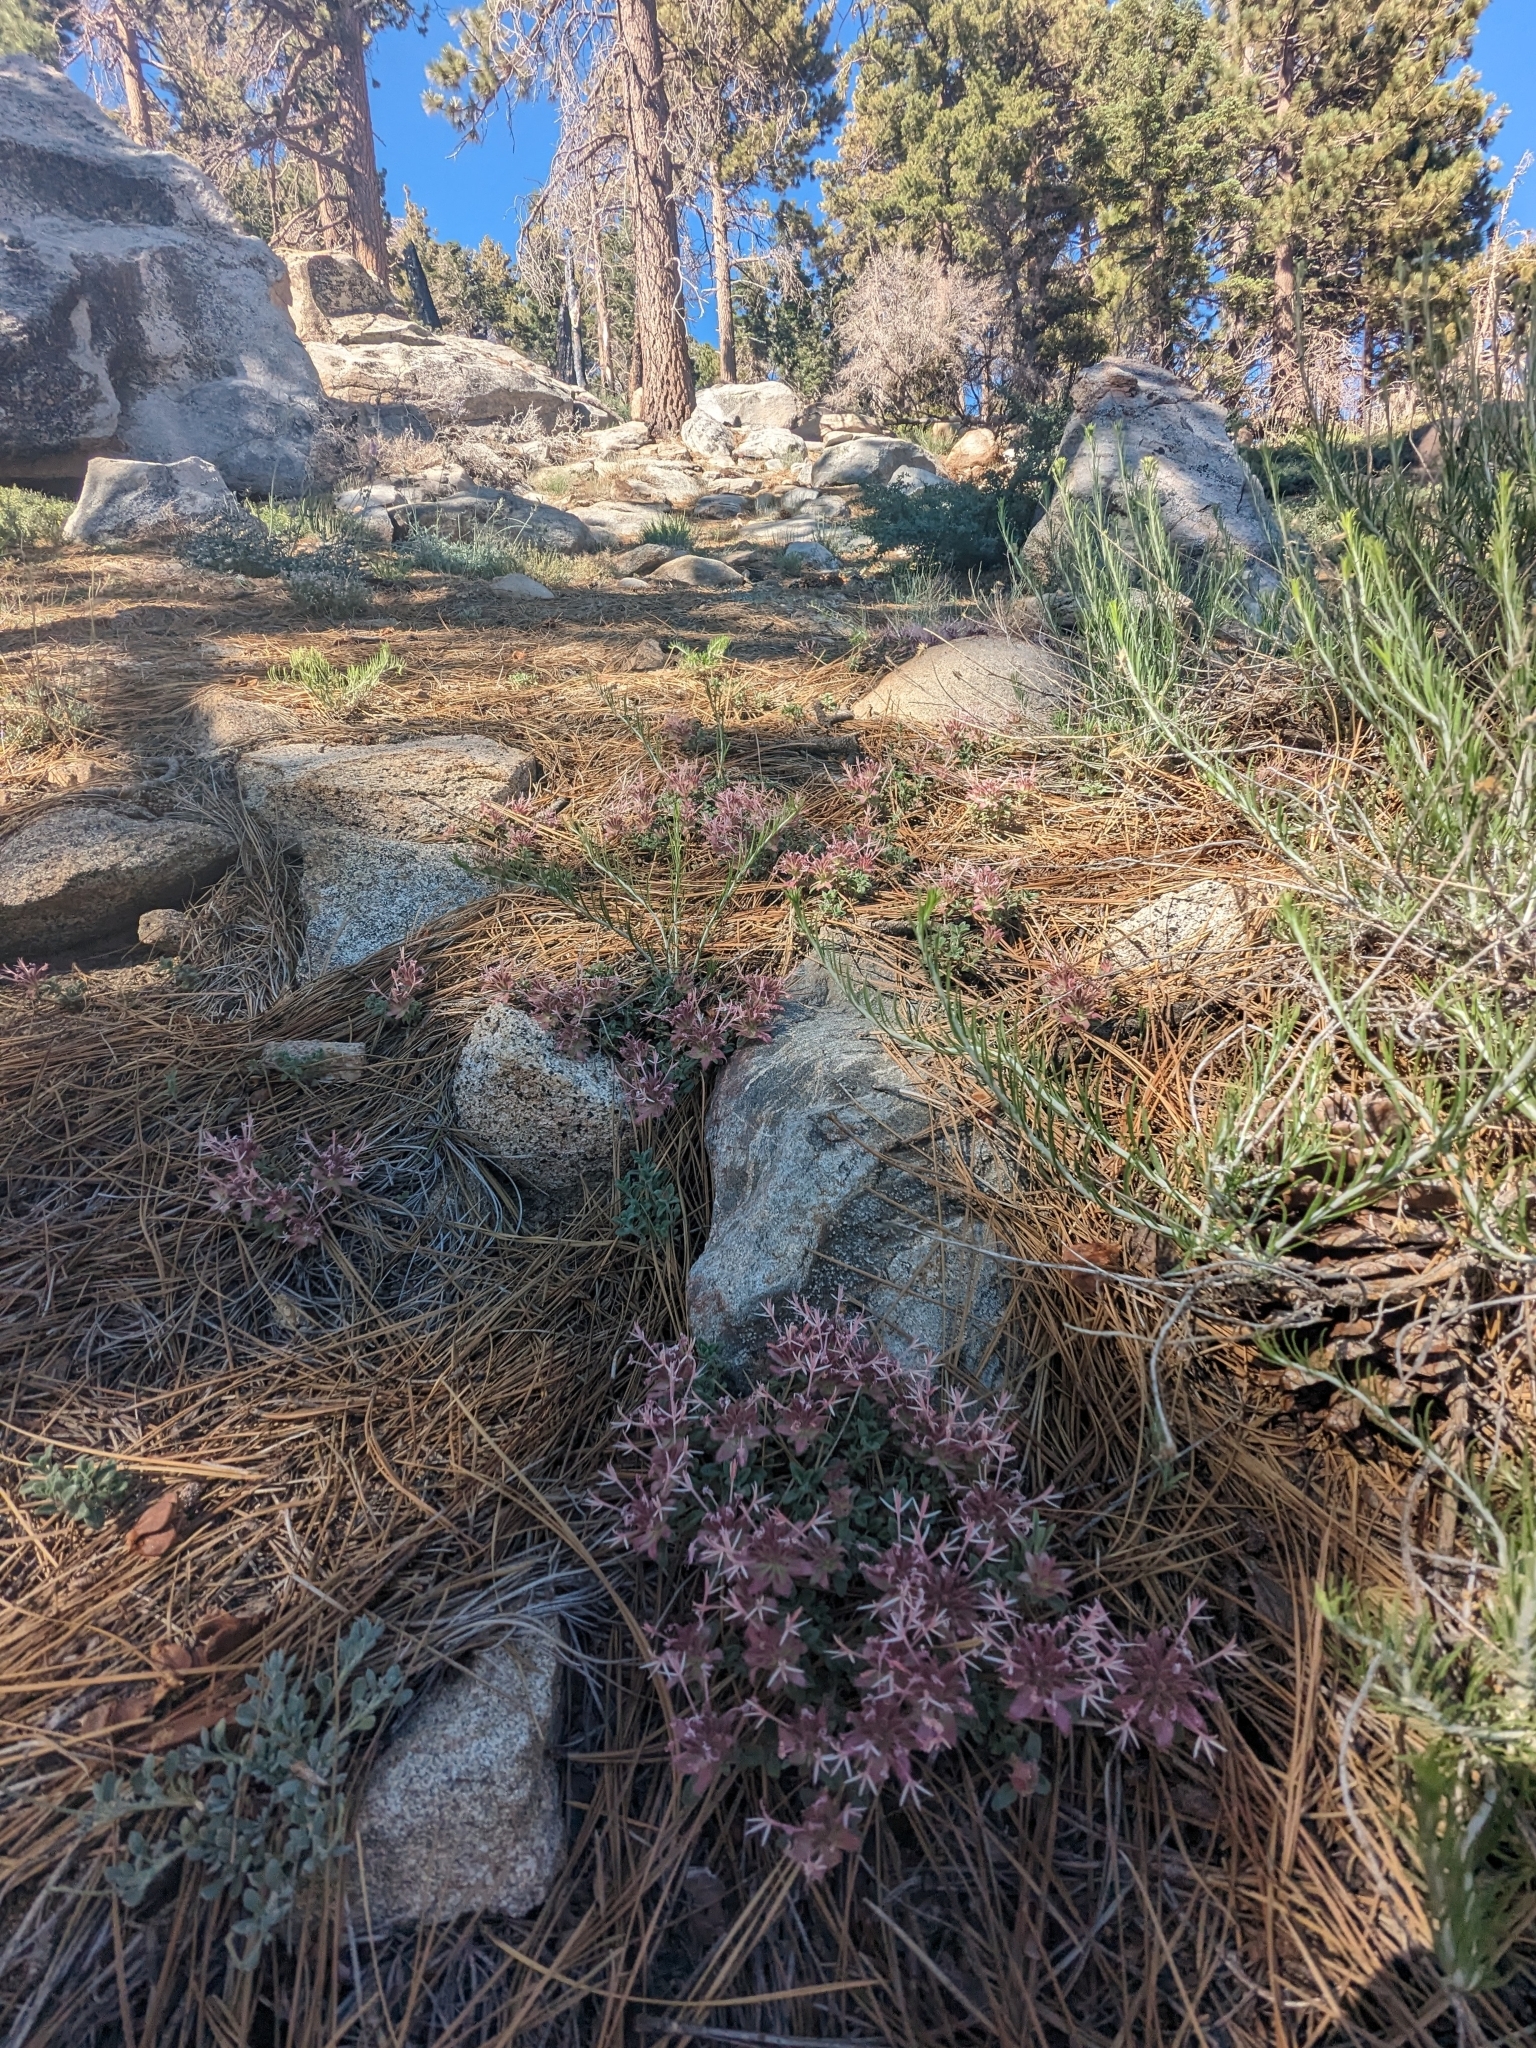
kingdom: Plantae
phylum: Tracheophyta
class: Magnoliopsida
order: Lamiales
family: Lamiaceae
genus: Monardella
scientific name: Monardella nana
